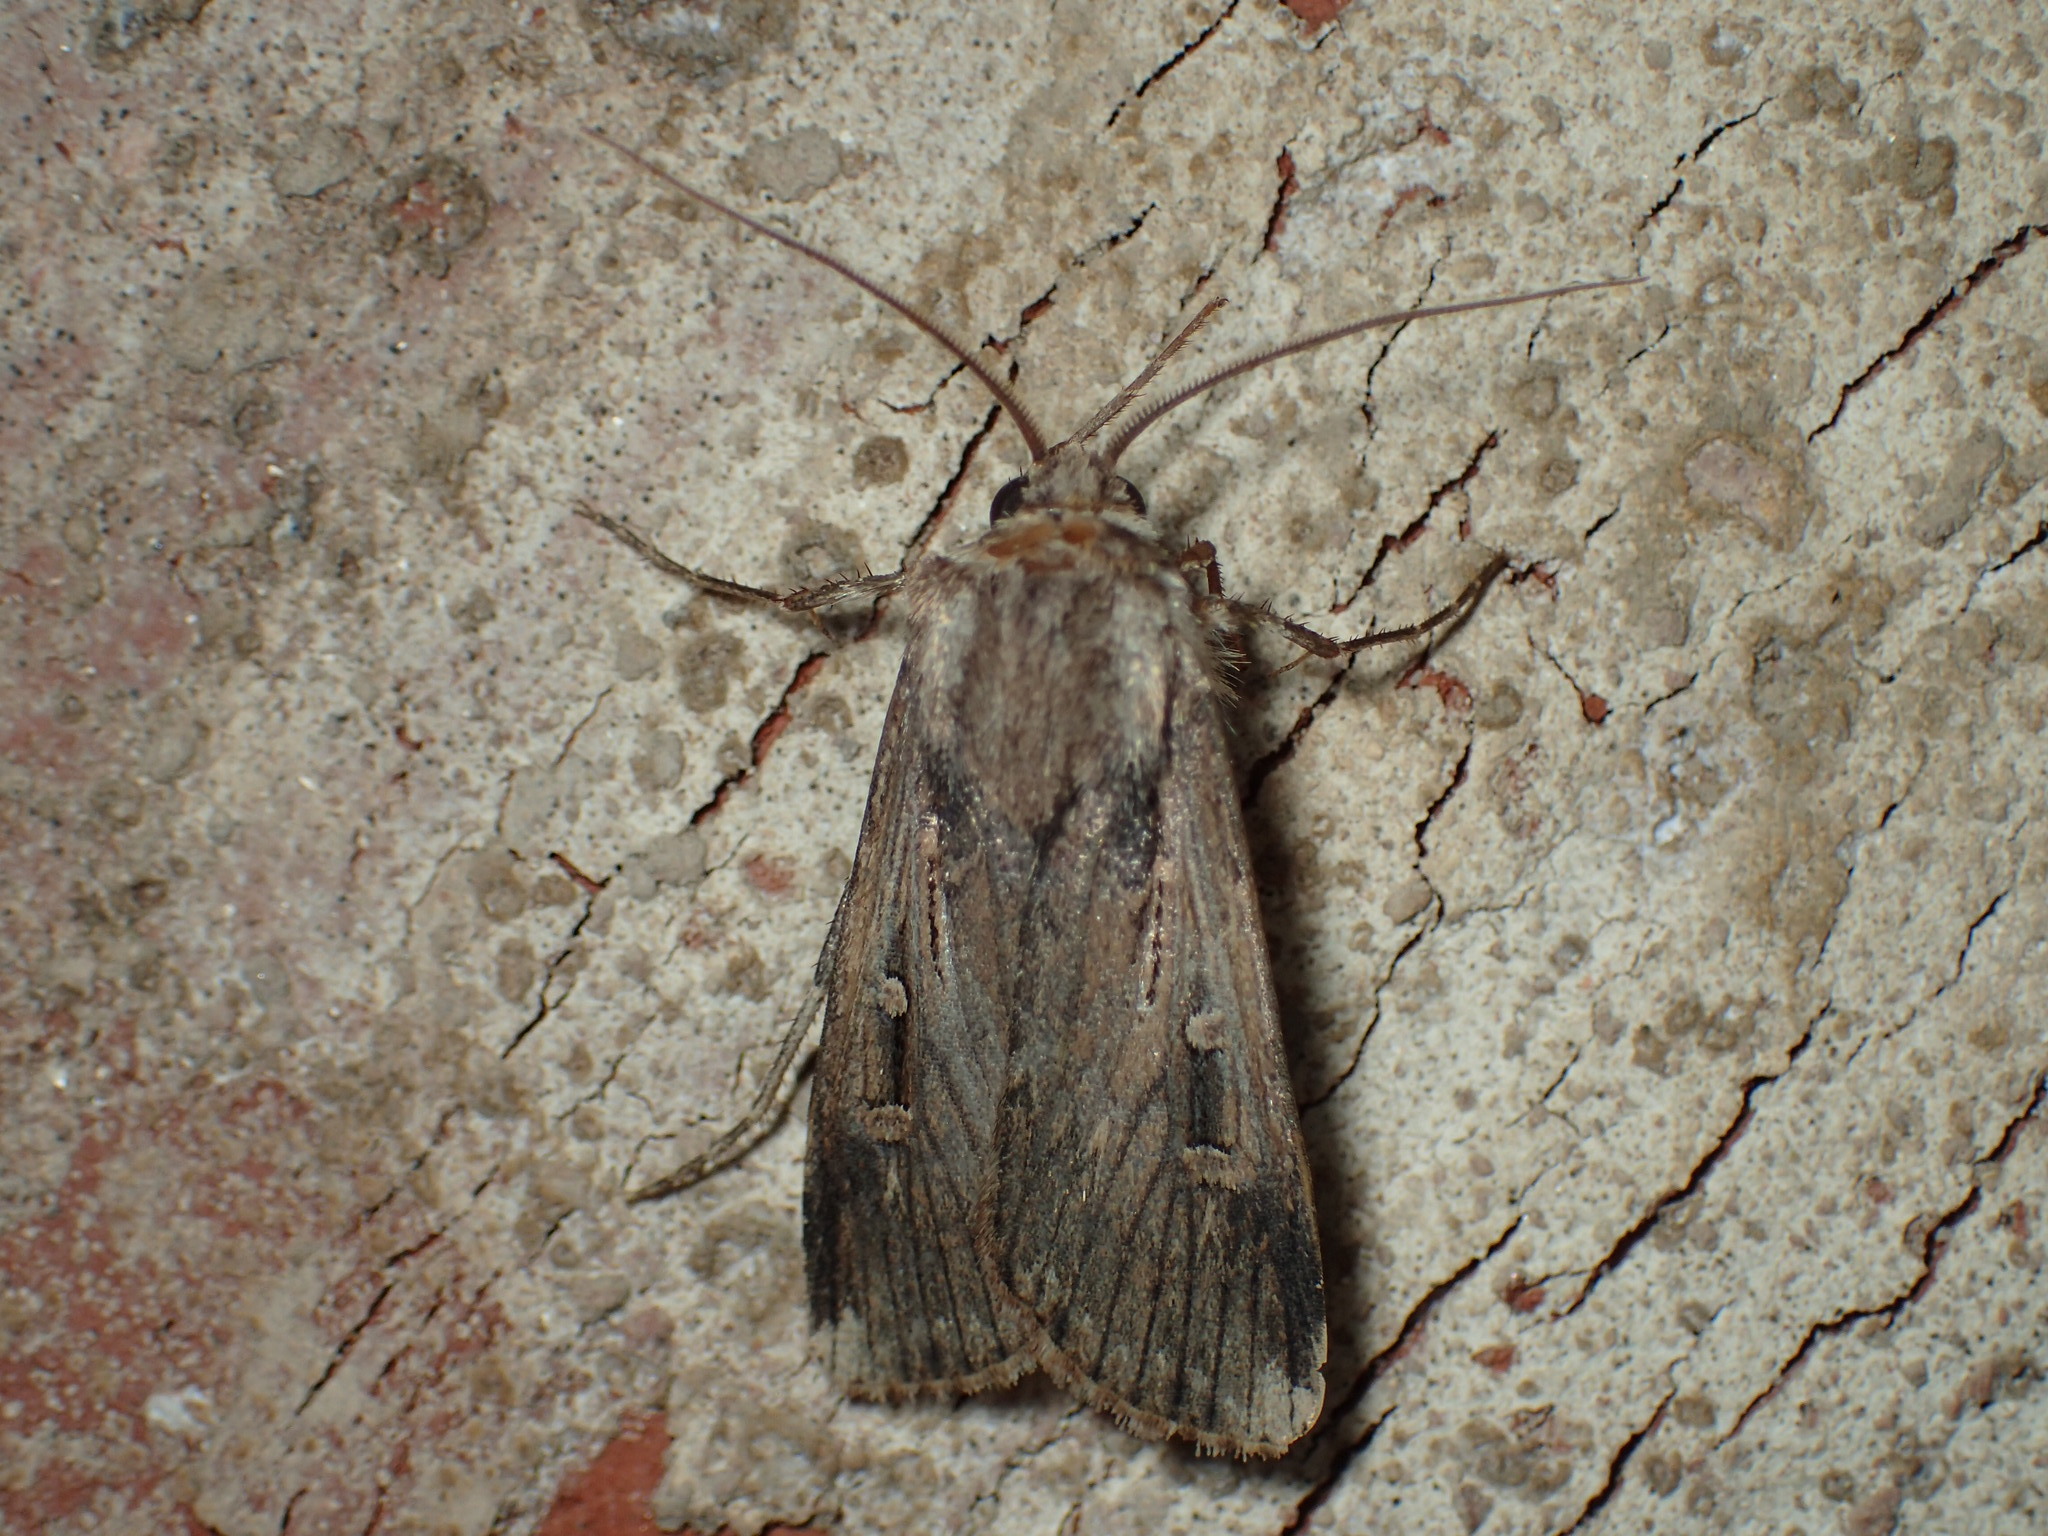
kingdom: Animalia
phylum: Arthropoda
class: Insecta
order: Lepidoptera
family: Noctuidae
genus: Feltia
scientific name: Feltia subterranea
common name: Granulate cutworm
